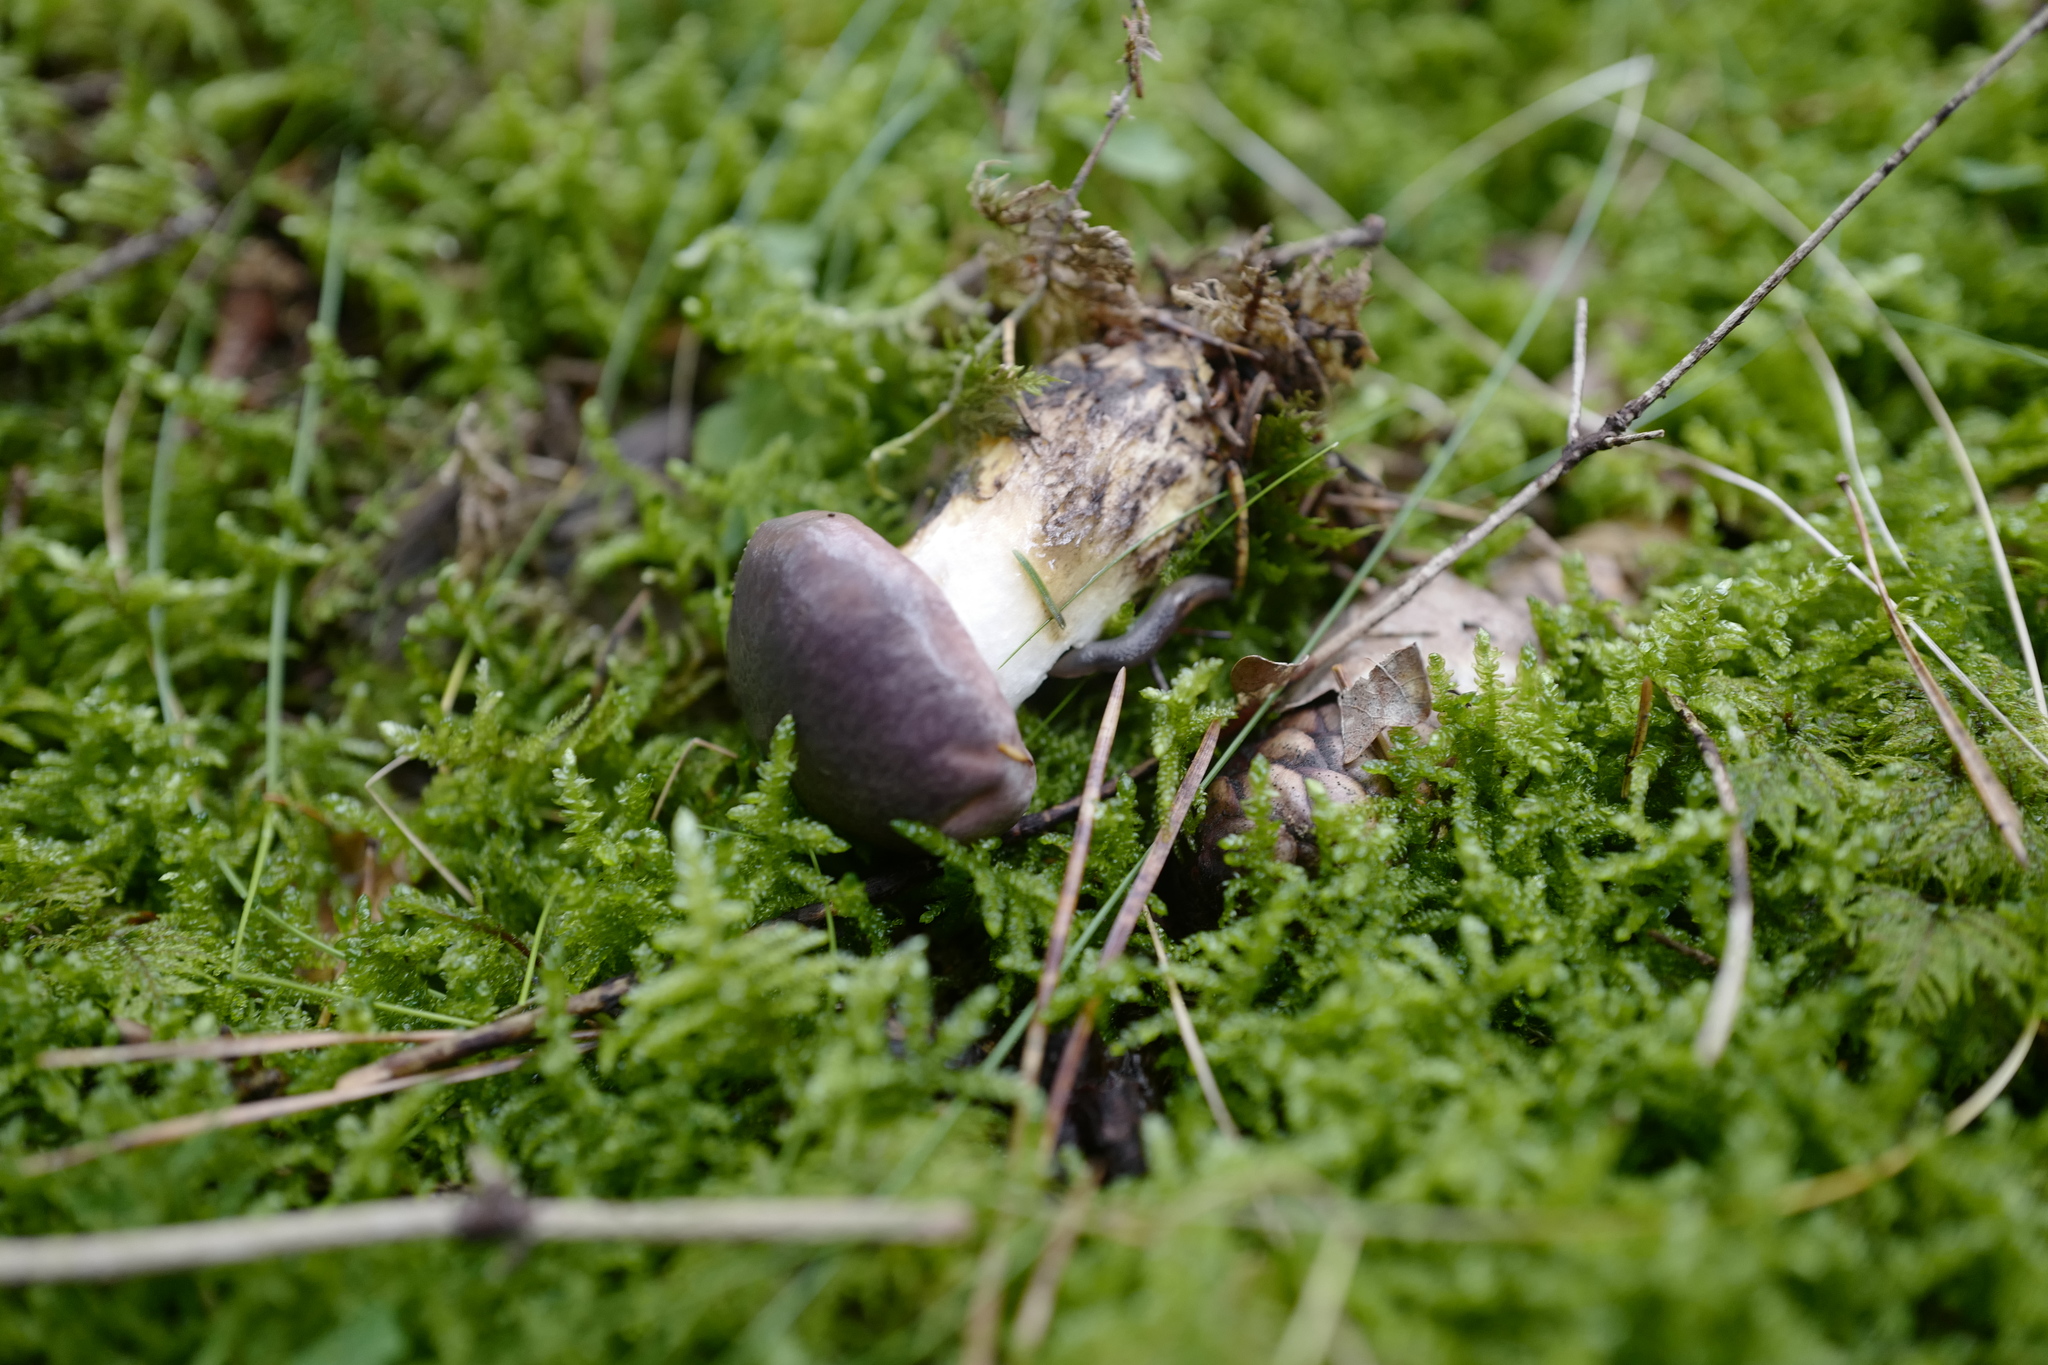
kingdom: Fungi
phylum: Basidiomycota
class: Agaricomycetes
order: Boletales
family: Gomphidiaceae
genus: Gomphidius
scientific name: Gomphidius glutinosus
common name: Slimy spike
